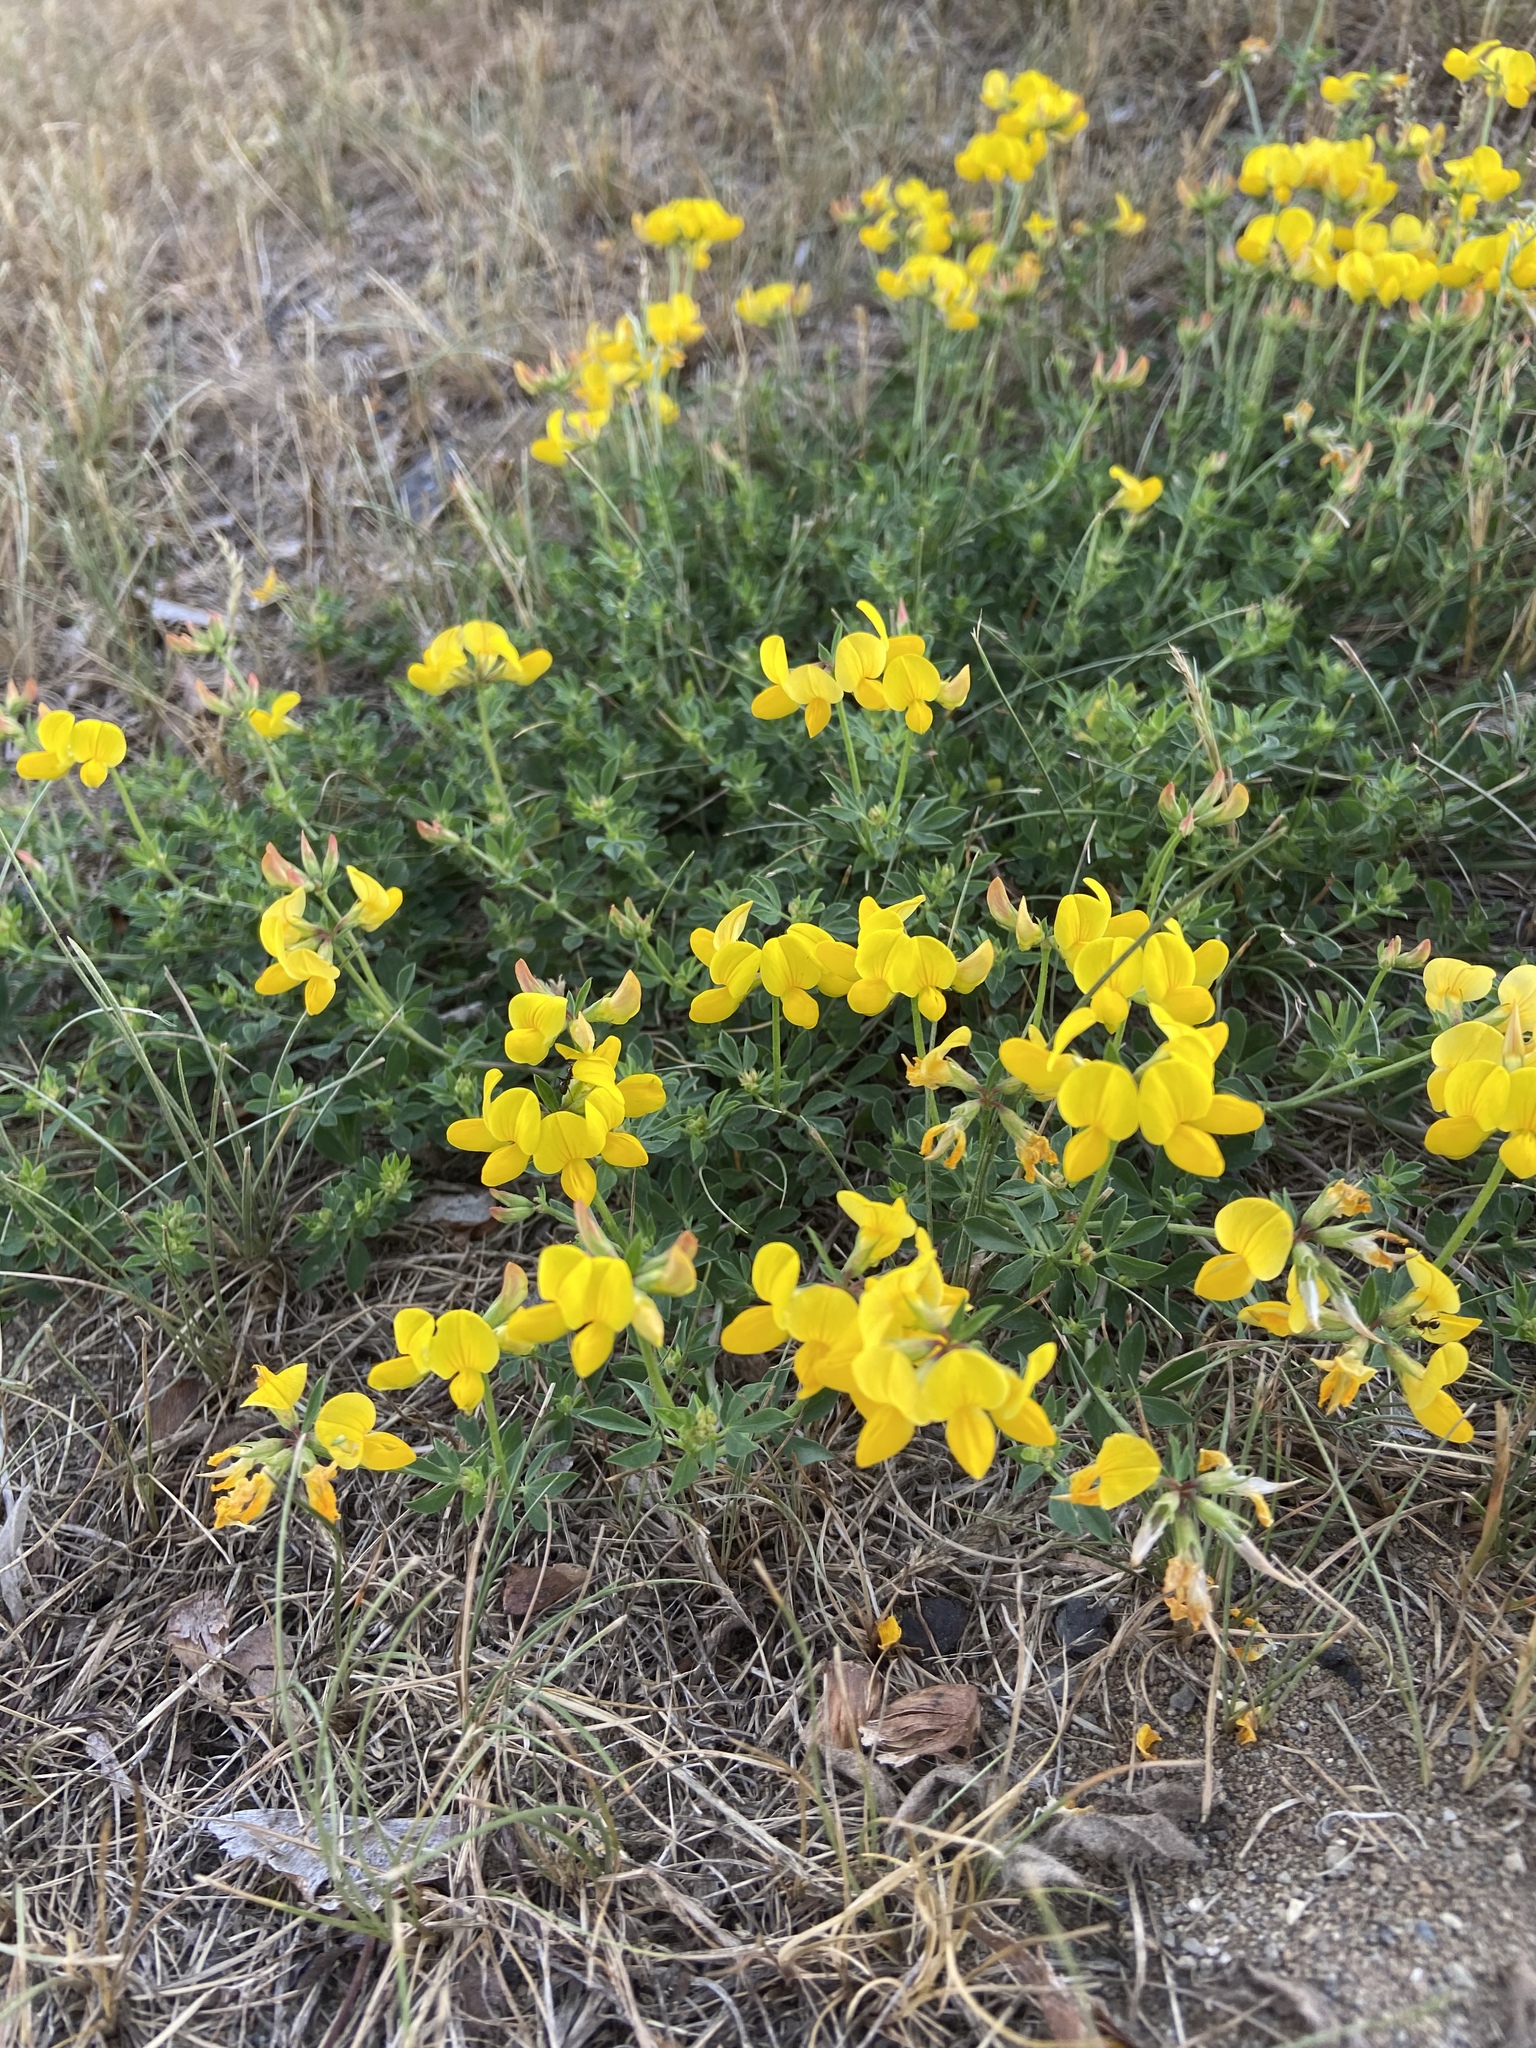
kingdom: Plantae
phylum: Tracheophyta
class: Magnoliopsida
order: Fabales
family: Fabaceae
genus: Lotus
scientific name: Lotus corniculatus
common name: Common bird's-foot-trefoil
